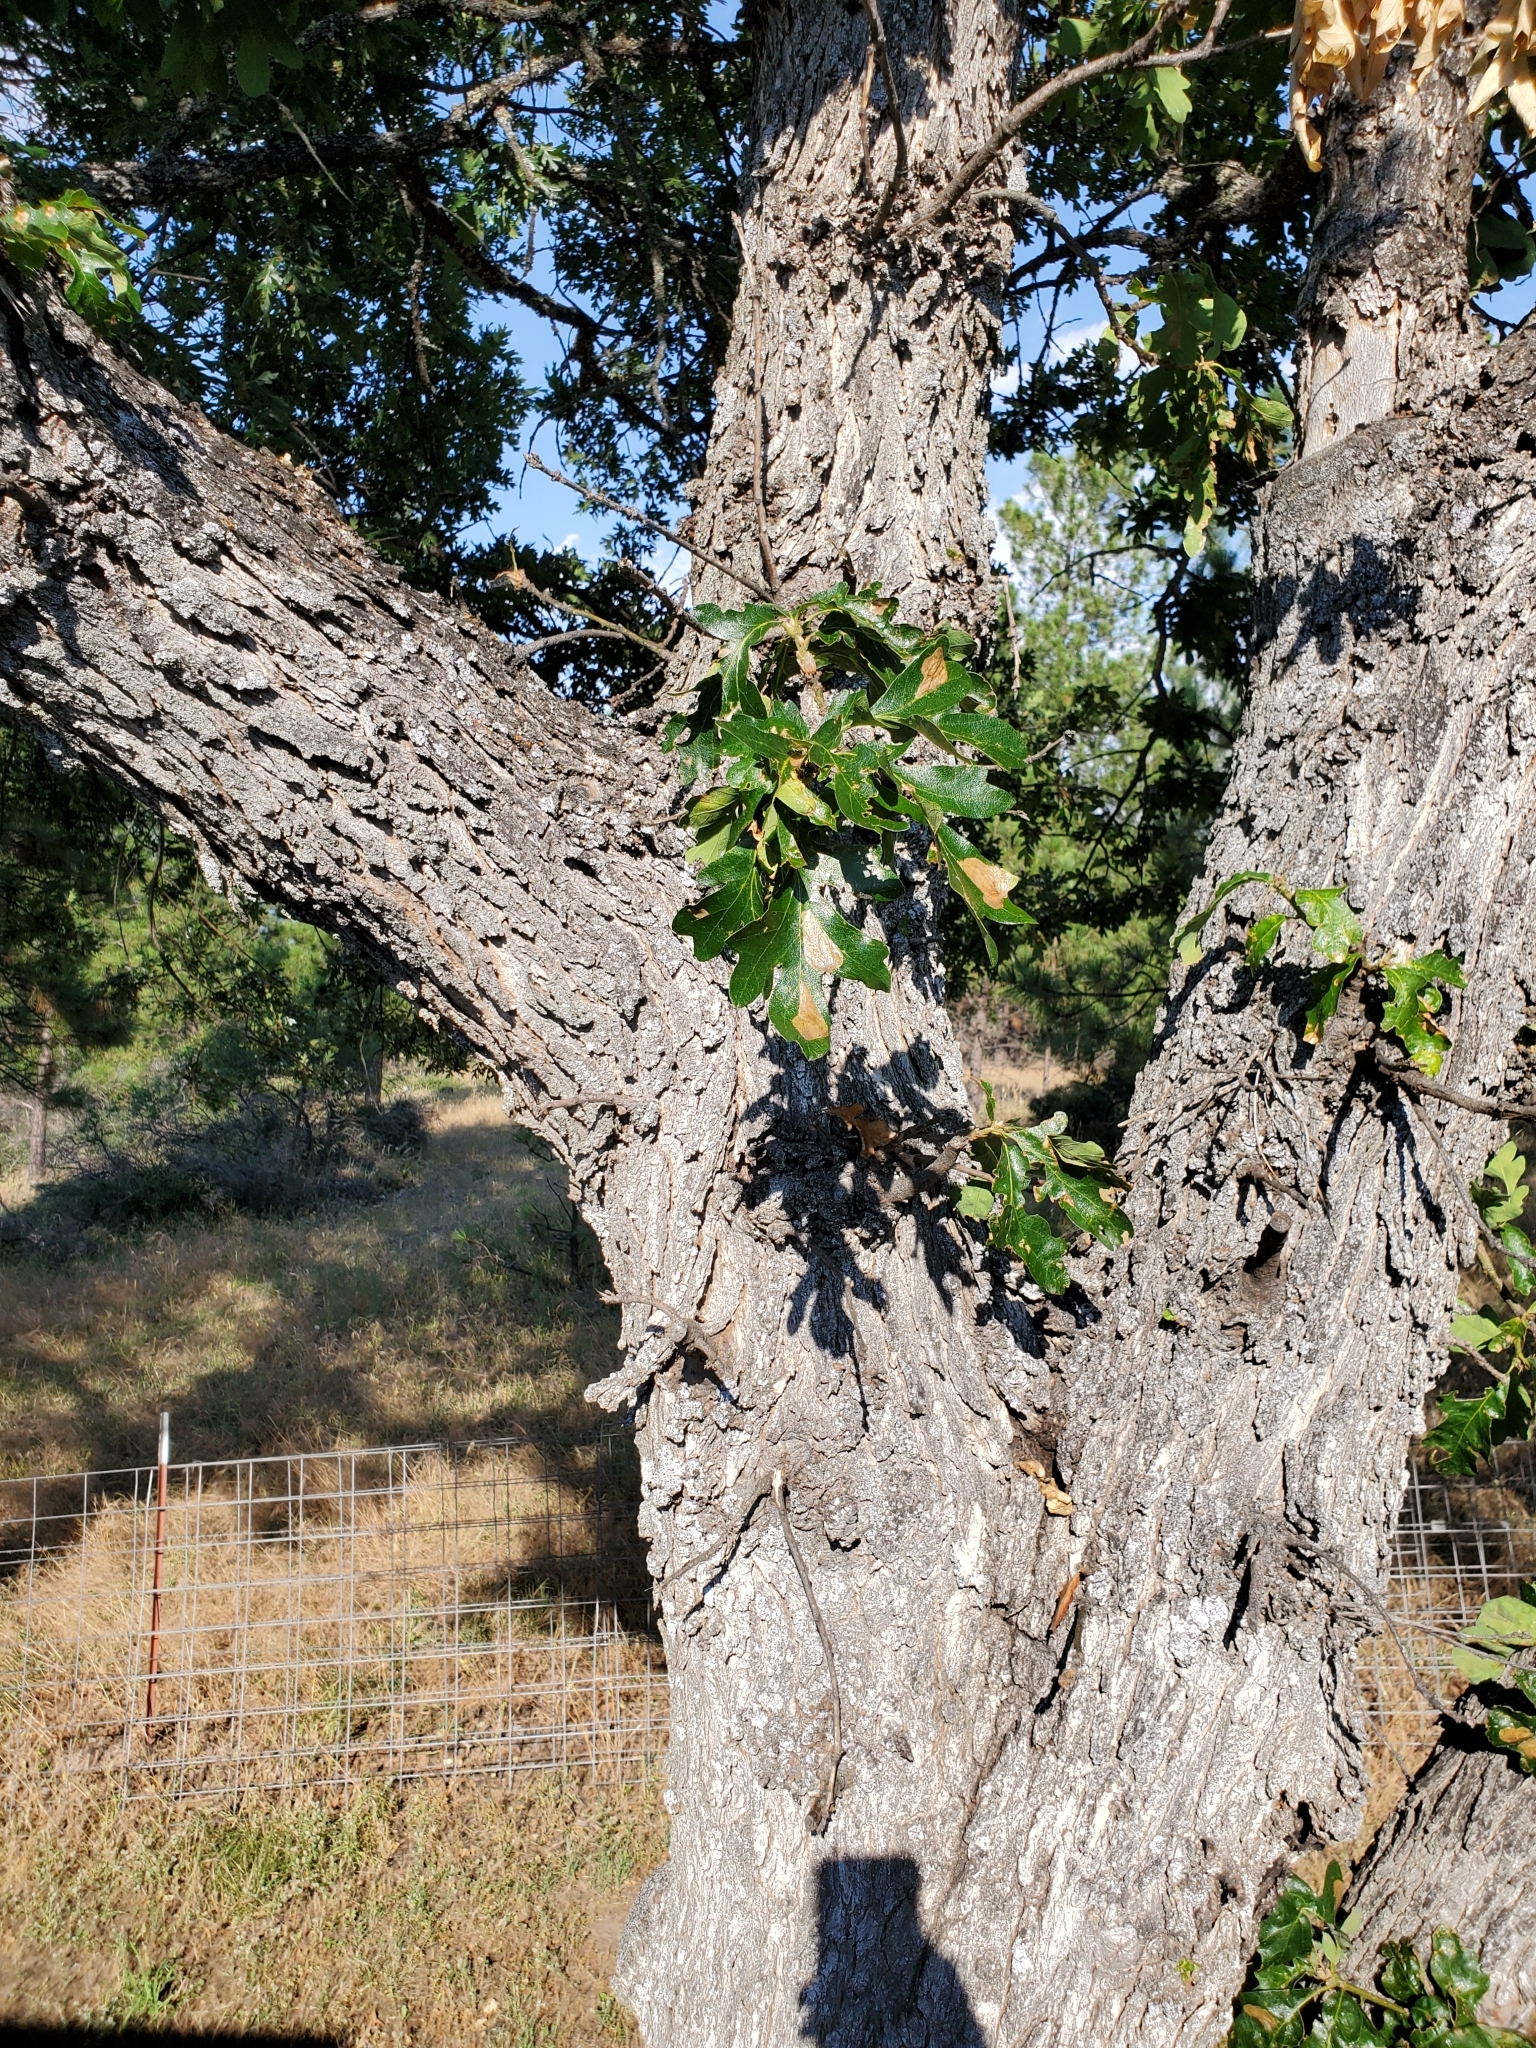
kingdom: Plantae
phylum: Tracheophyta
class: Magnoliopsida
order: Fagales
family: Fagaceae
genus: Quercus
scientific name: Quercus garryana
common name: Garry oak
